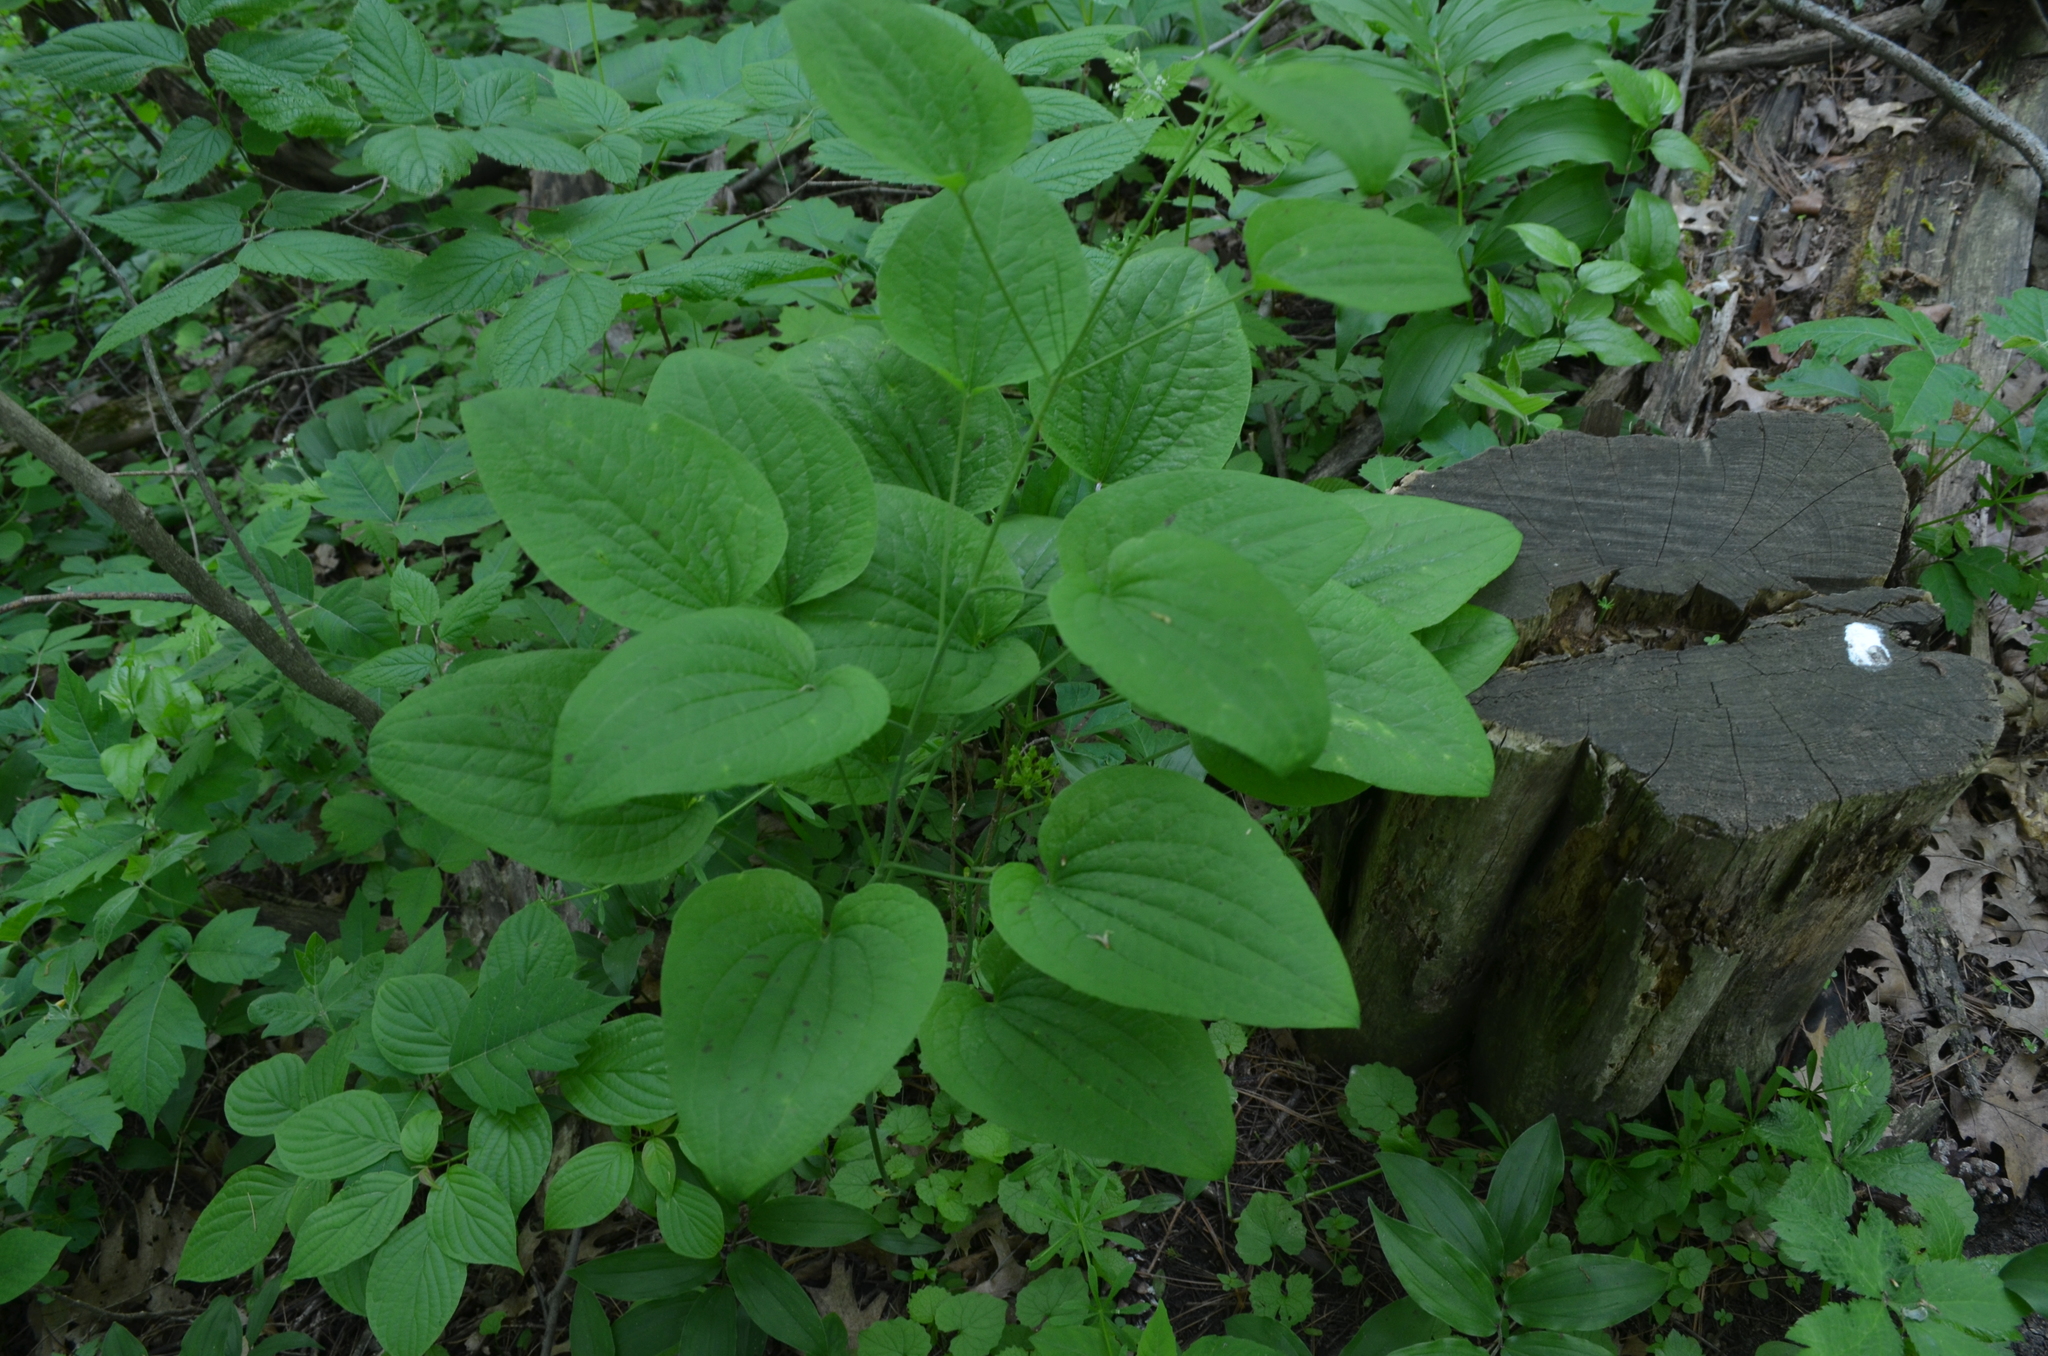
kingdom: Plantae
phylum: Tracheophyta
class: Liliopsida
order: Liliales
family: Smilacaceae
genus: Smilax
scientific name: Smilax ecirrhata
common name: Upright carrionflower
